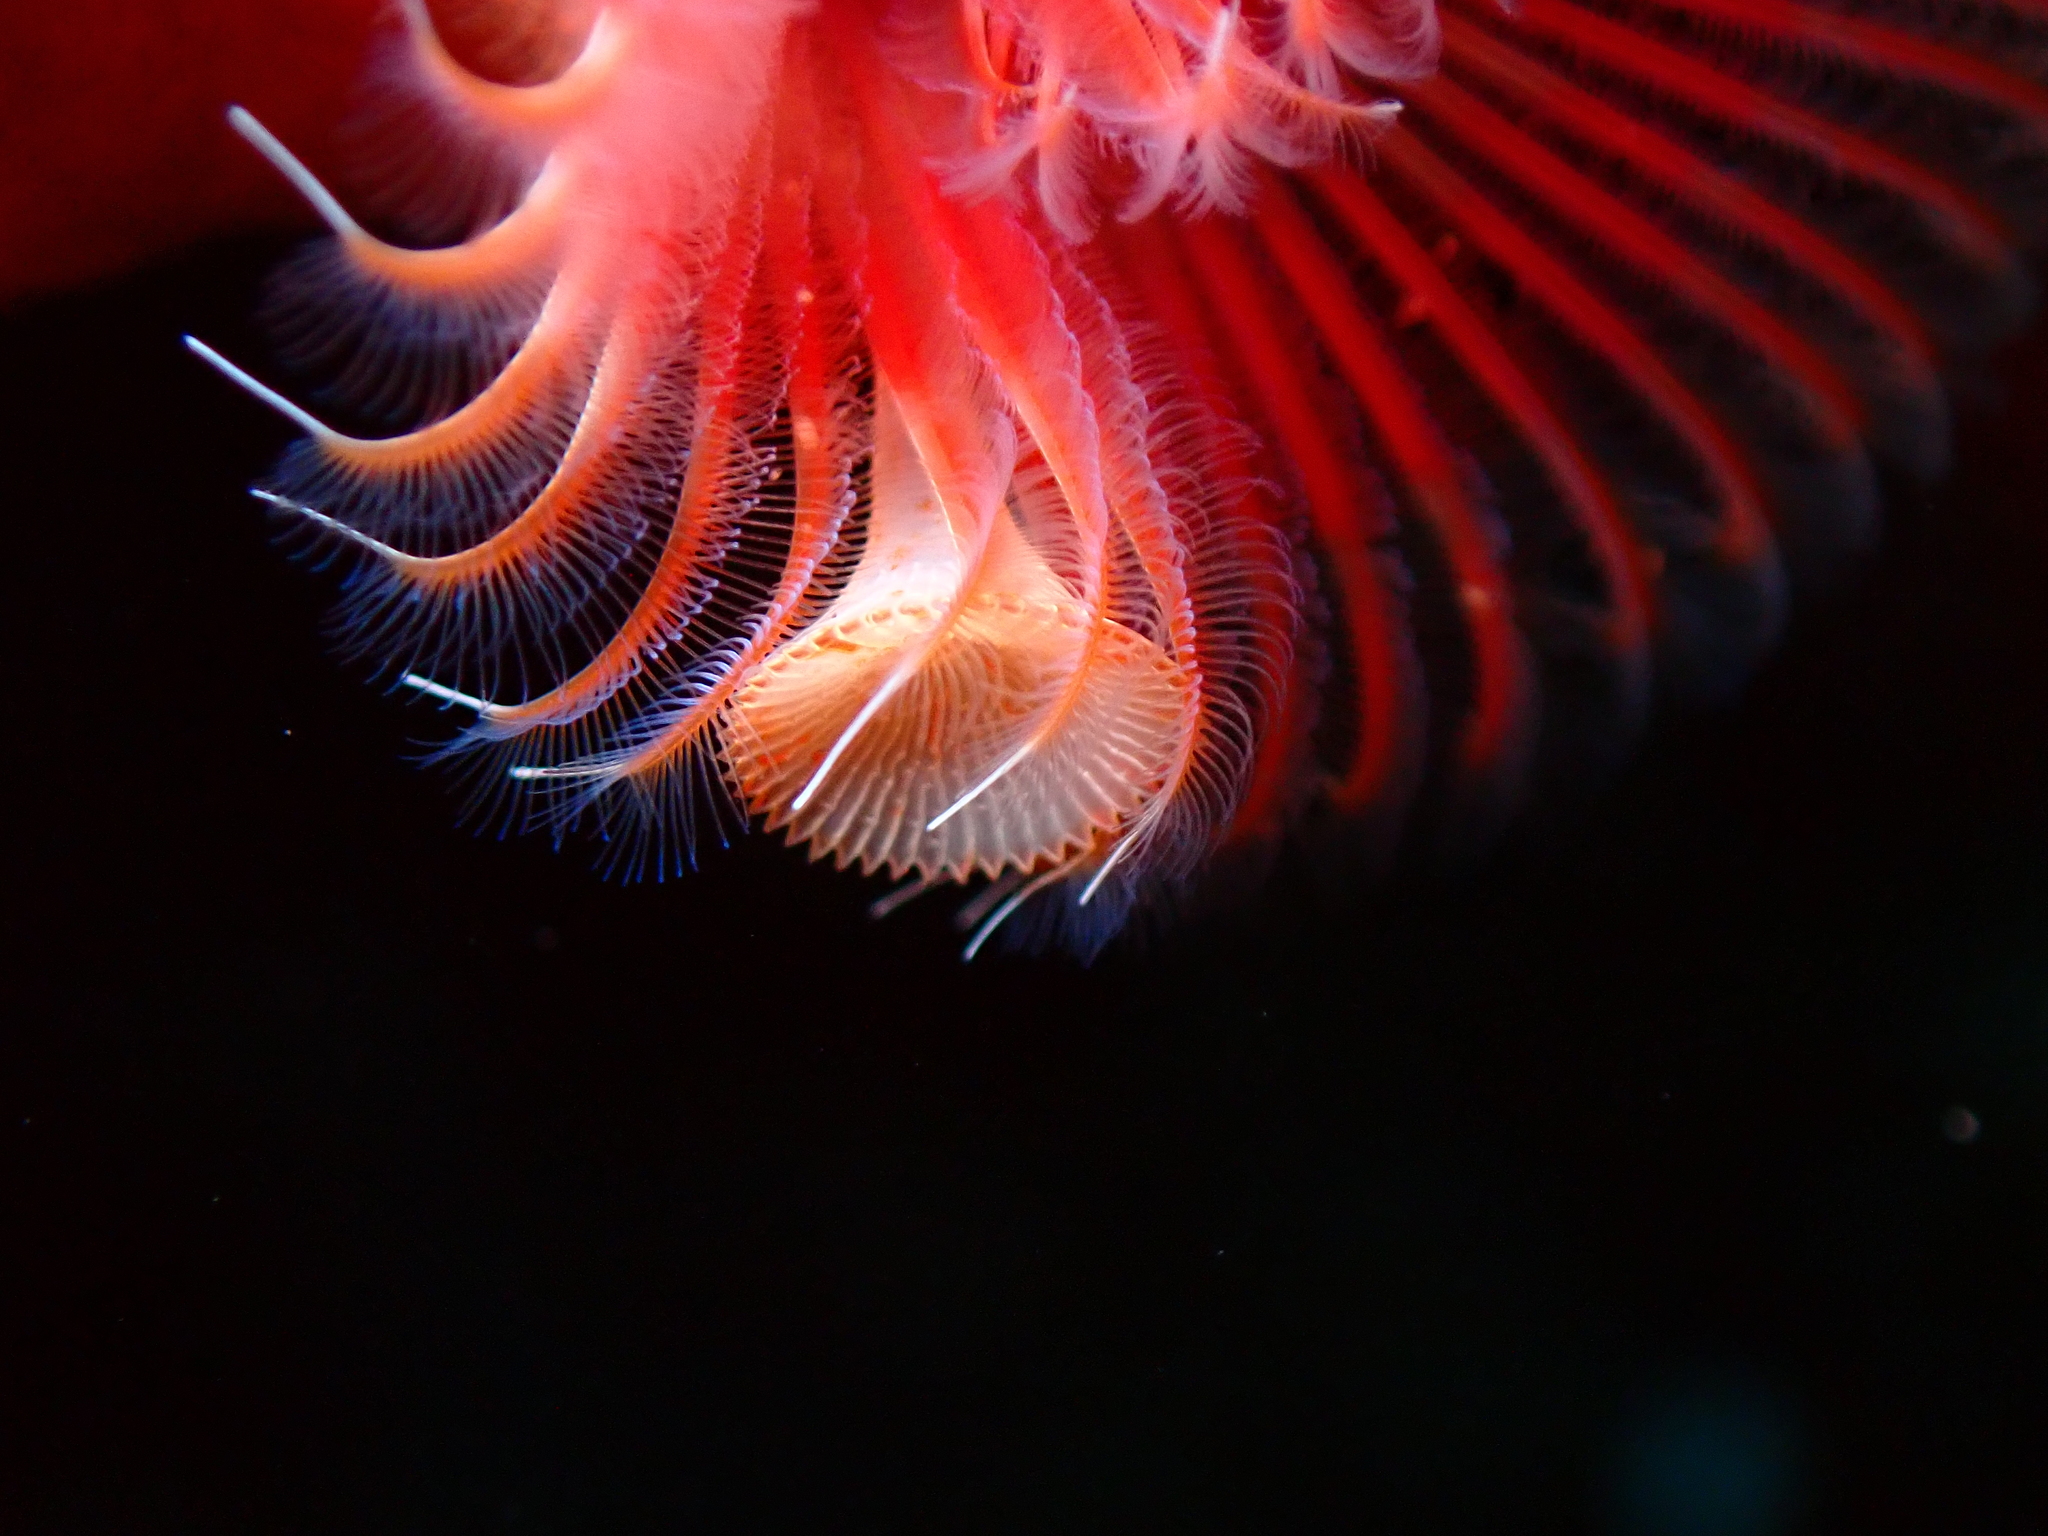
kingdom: Animalia
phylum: Annelida
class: Polychaeta
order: Sabellida
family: Serpulidae
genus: Serpula
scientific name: Serpula vermicularis
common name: Calcareous tubeworm
